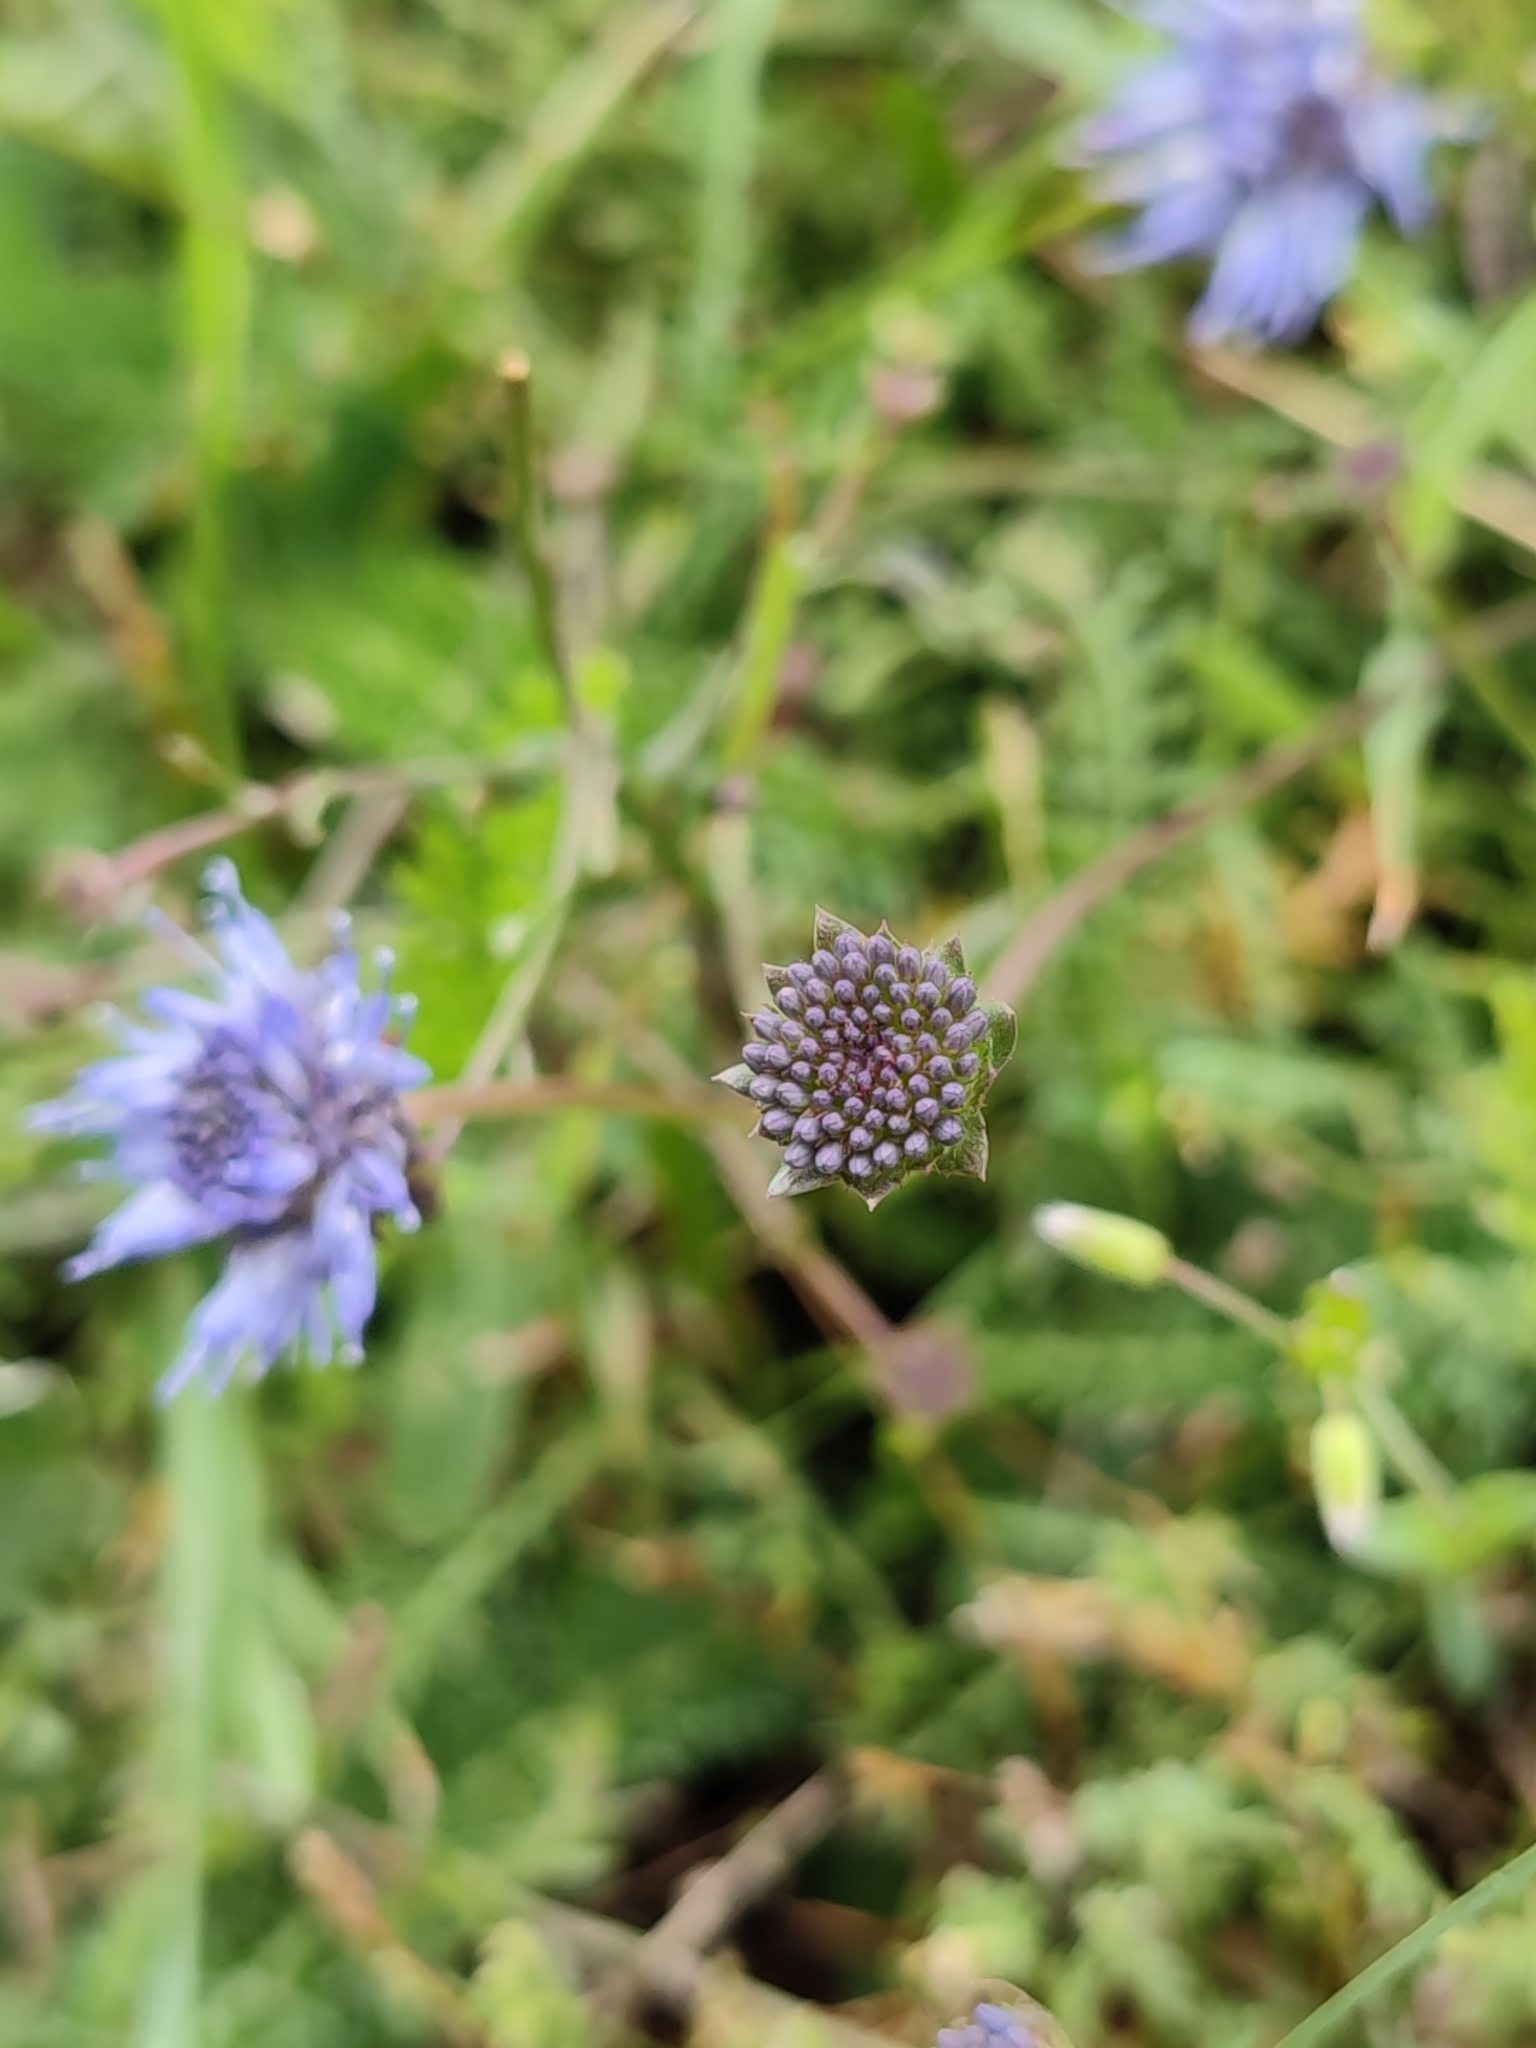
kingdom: Plantae
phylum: Tracheophyta
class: Magnoliopsida
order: Asterales
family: Campanulaceae
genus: Jasione
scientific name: Jasione montana
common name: Sheep's-bit
